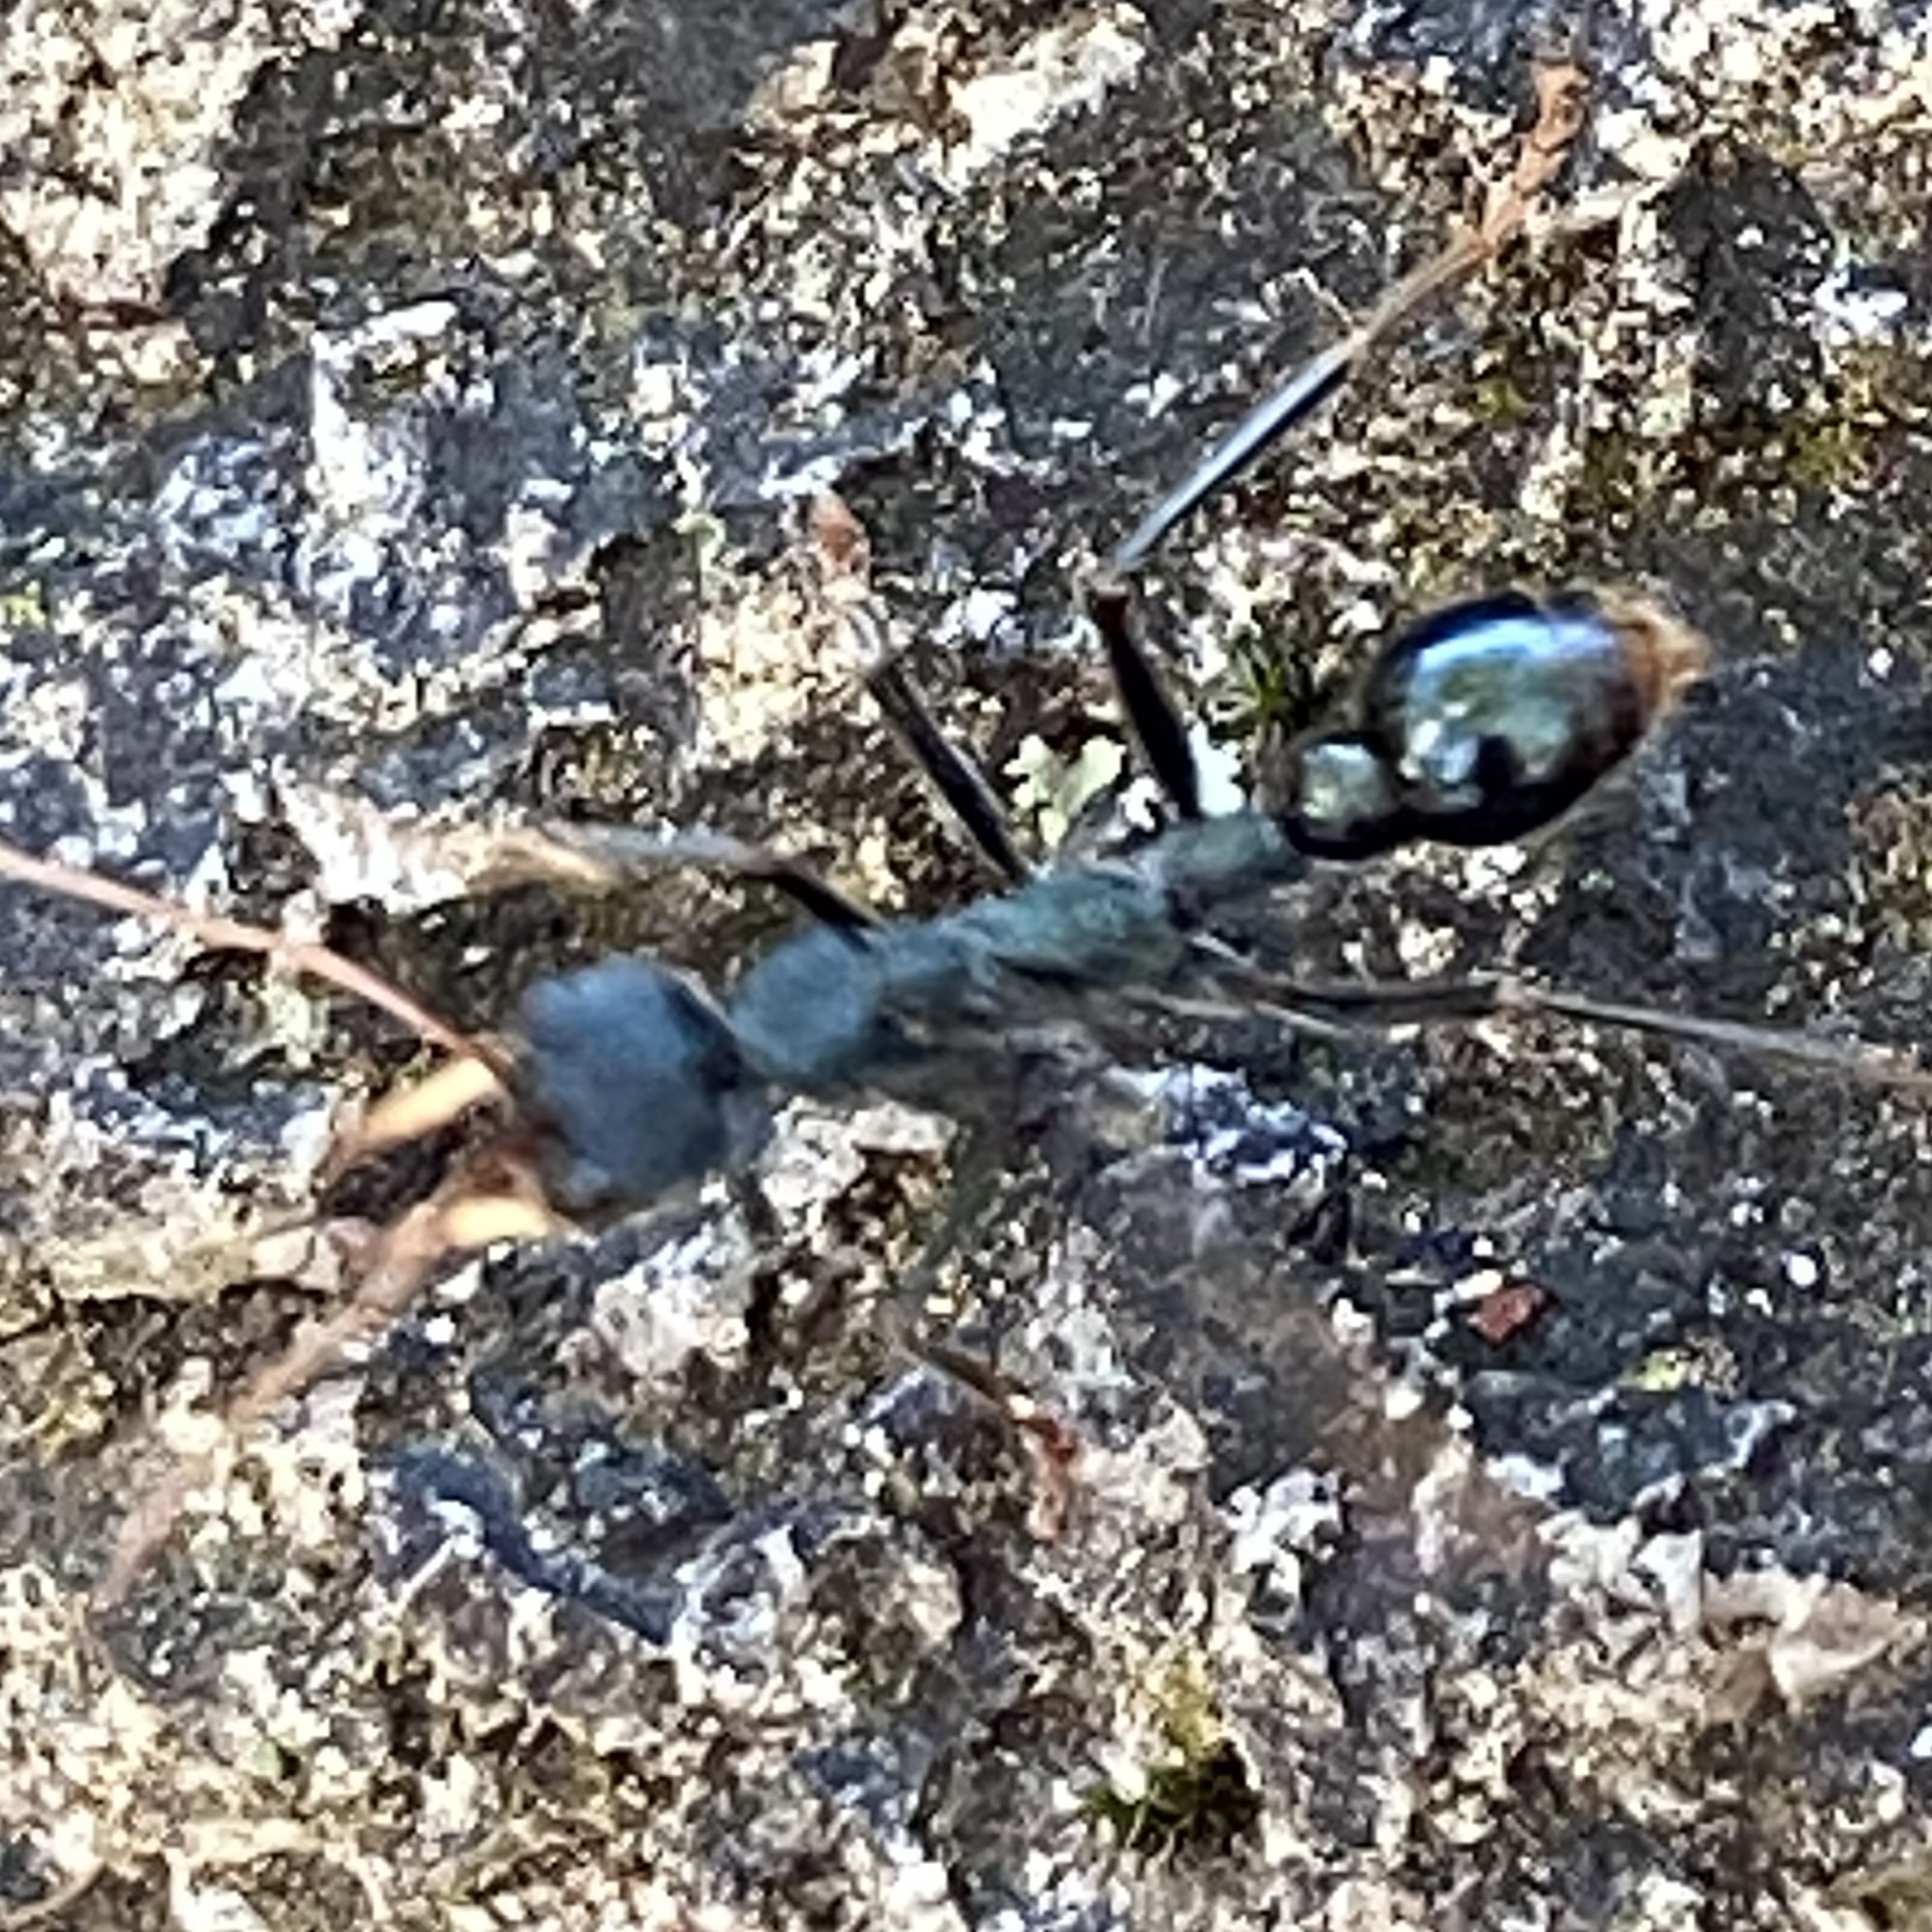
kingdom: Animalia
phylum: Arthropoda
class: Insecta
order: Hymenoptera
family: Formicidae
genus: Myrmecia
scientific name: Myrmecia tarsata
